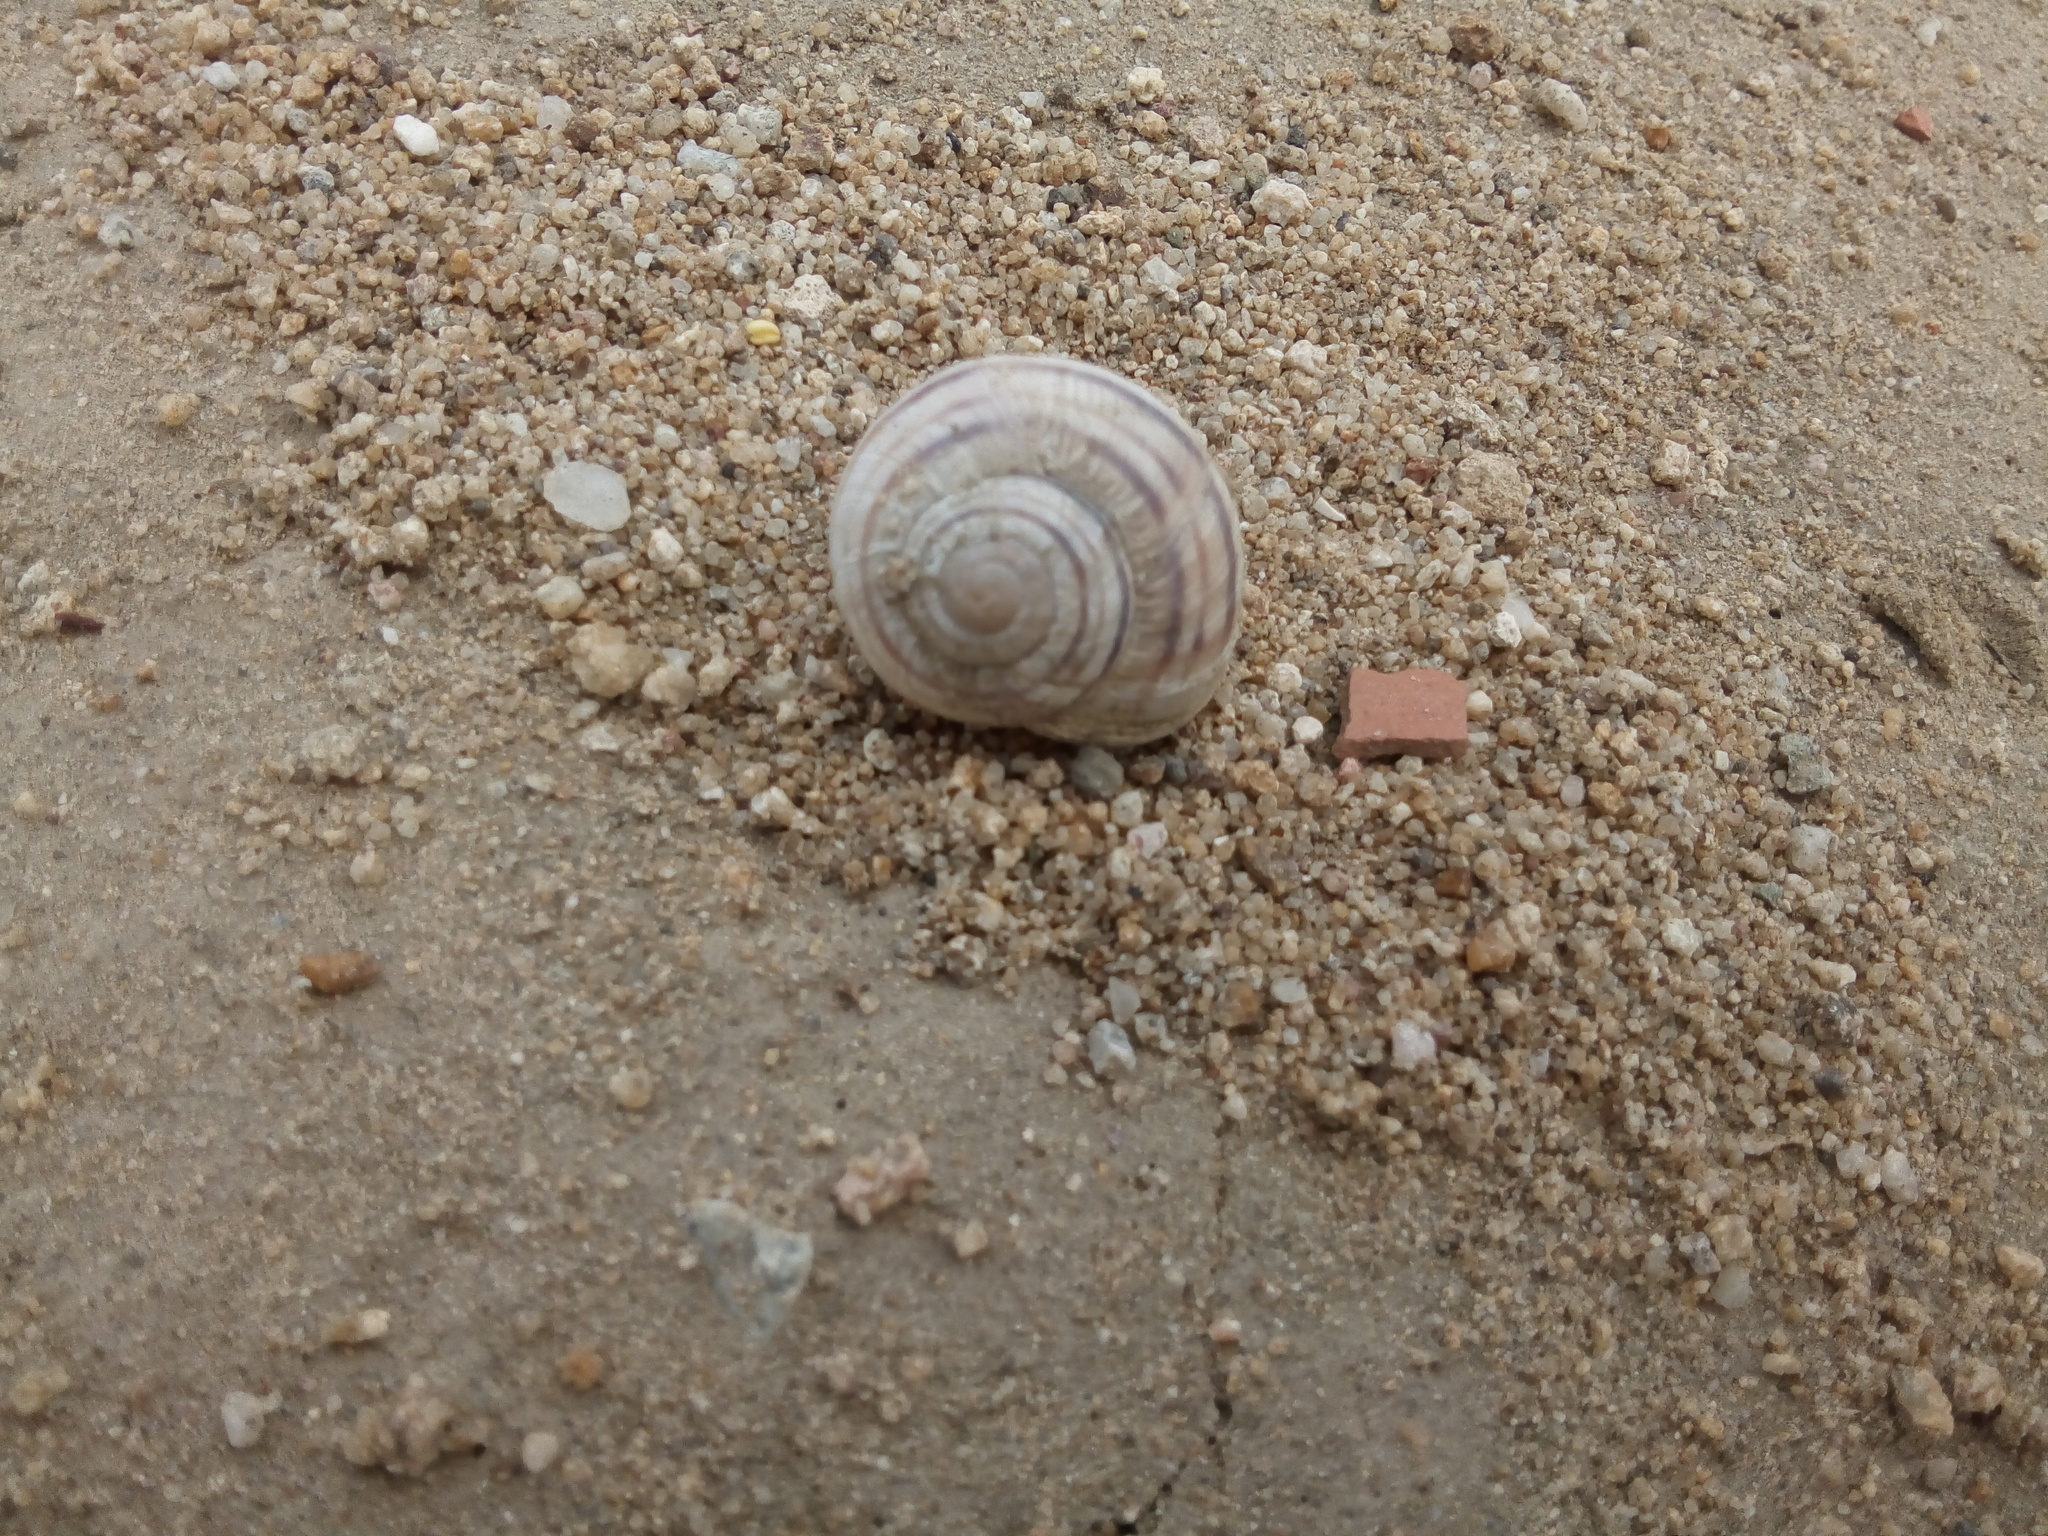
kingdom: Animalia
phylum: Mollusca
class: Gastropoda
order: Stylommatophora
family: Helicidae
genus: Helix
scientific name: Helix pathetica
